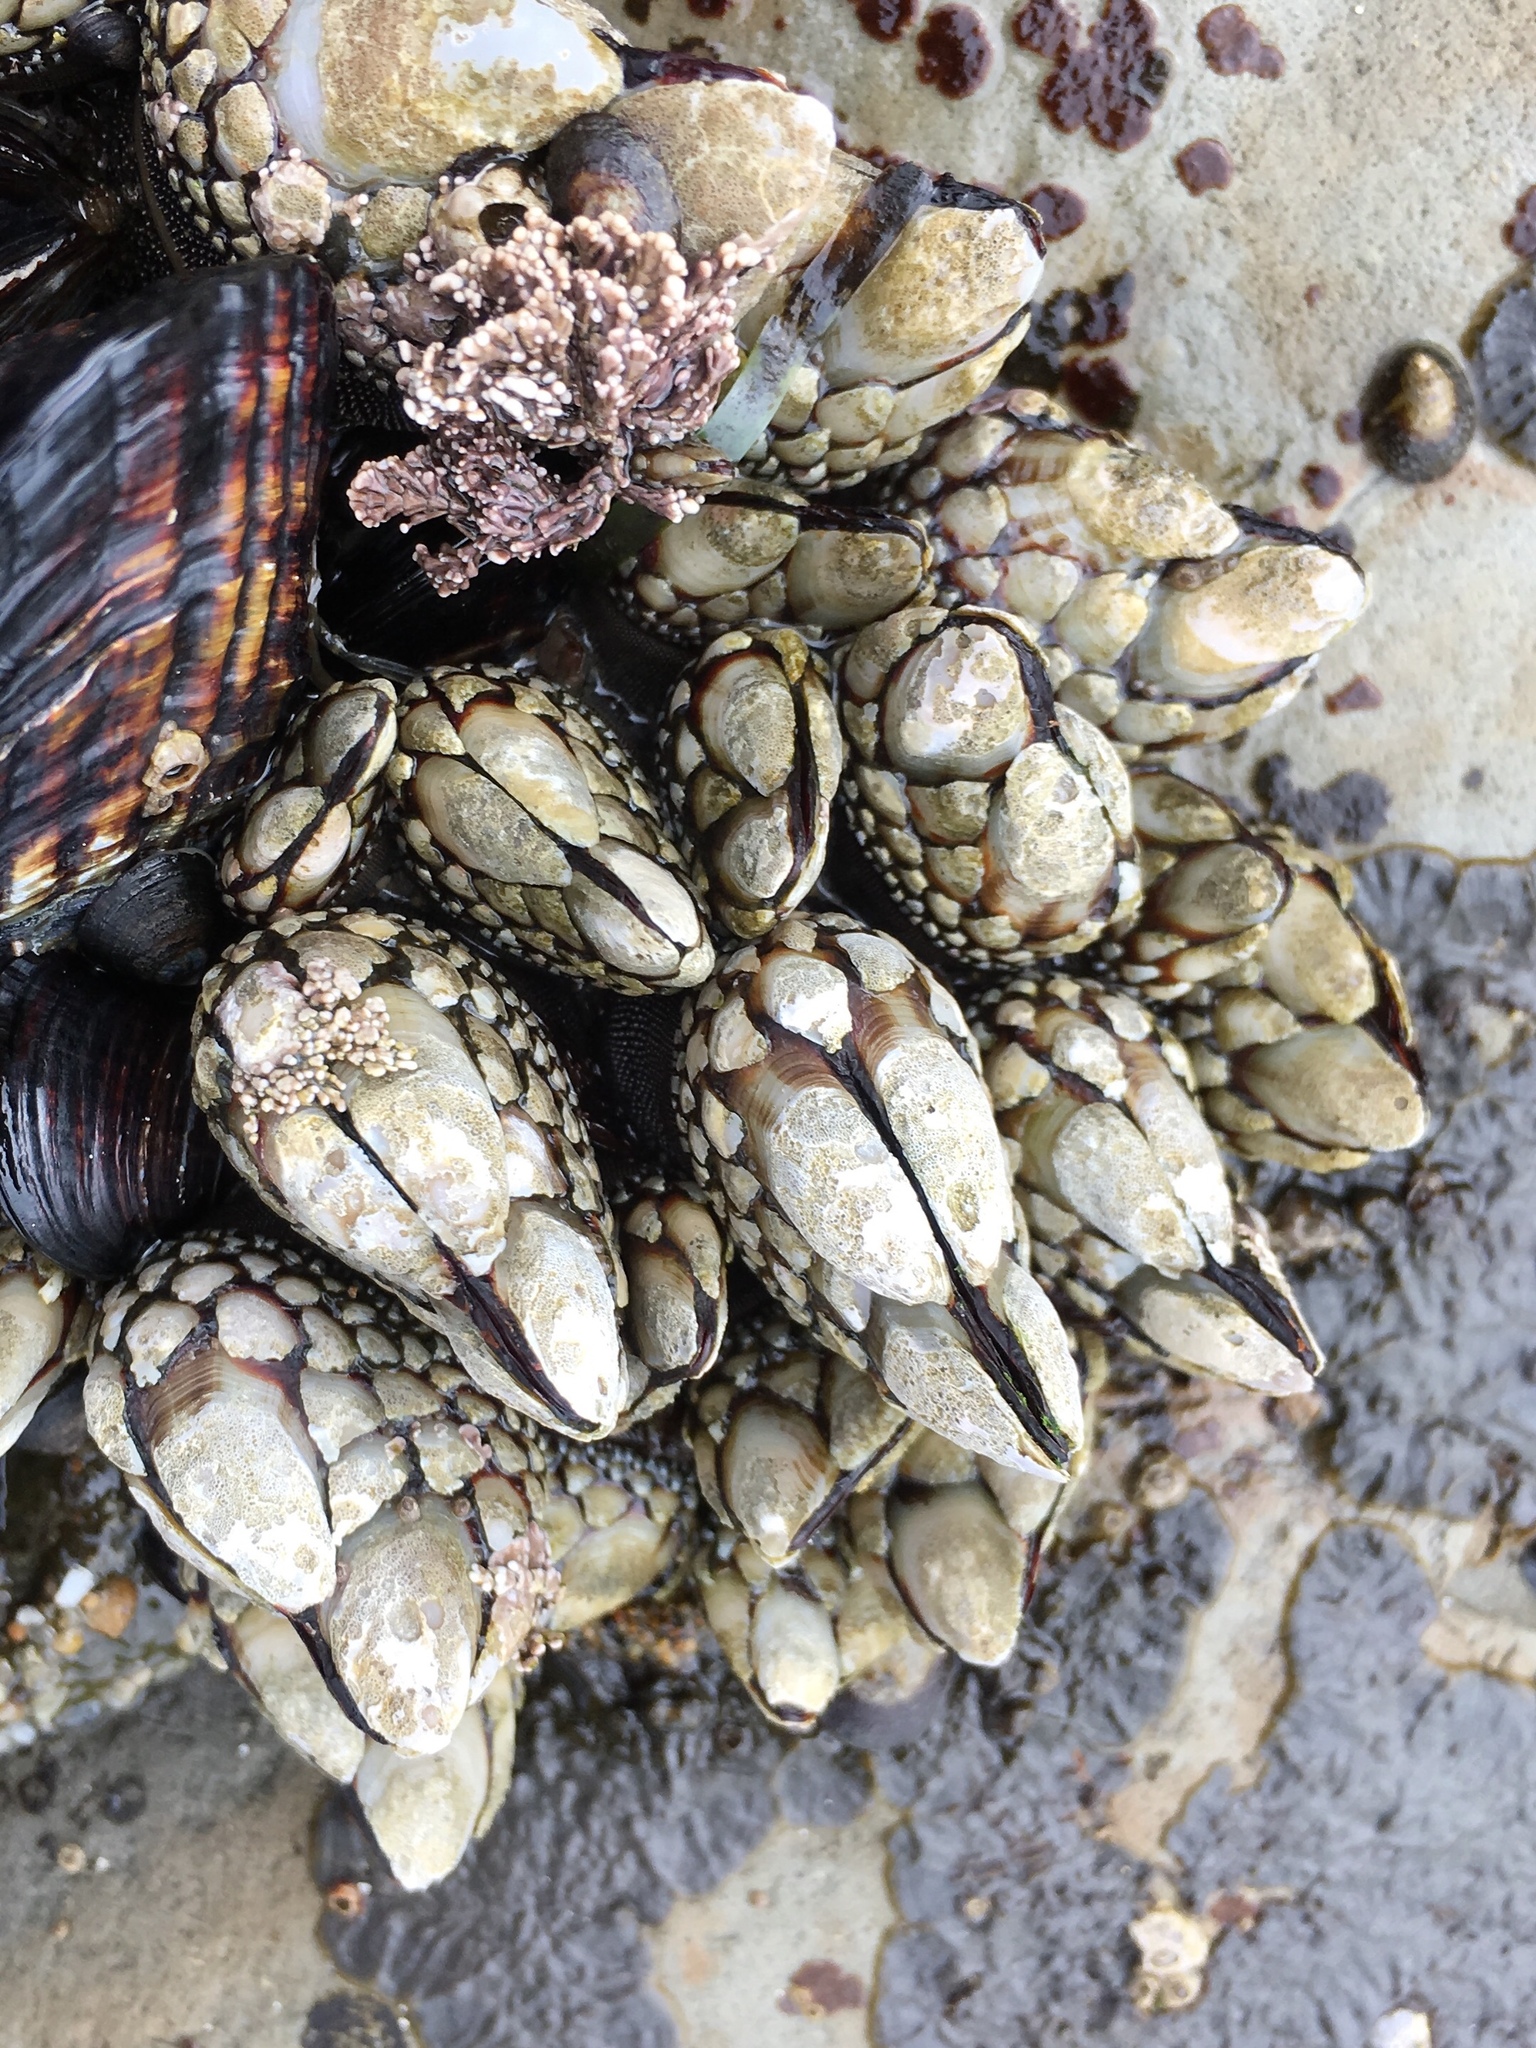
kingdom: Animalia
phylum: Arthropoda
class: Maxillopoda
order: Pedunculata
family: Pollicipedidae
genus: Pollicipes
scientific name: Pollicipes polymerus
